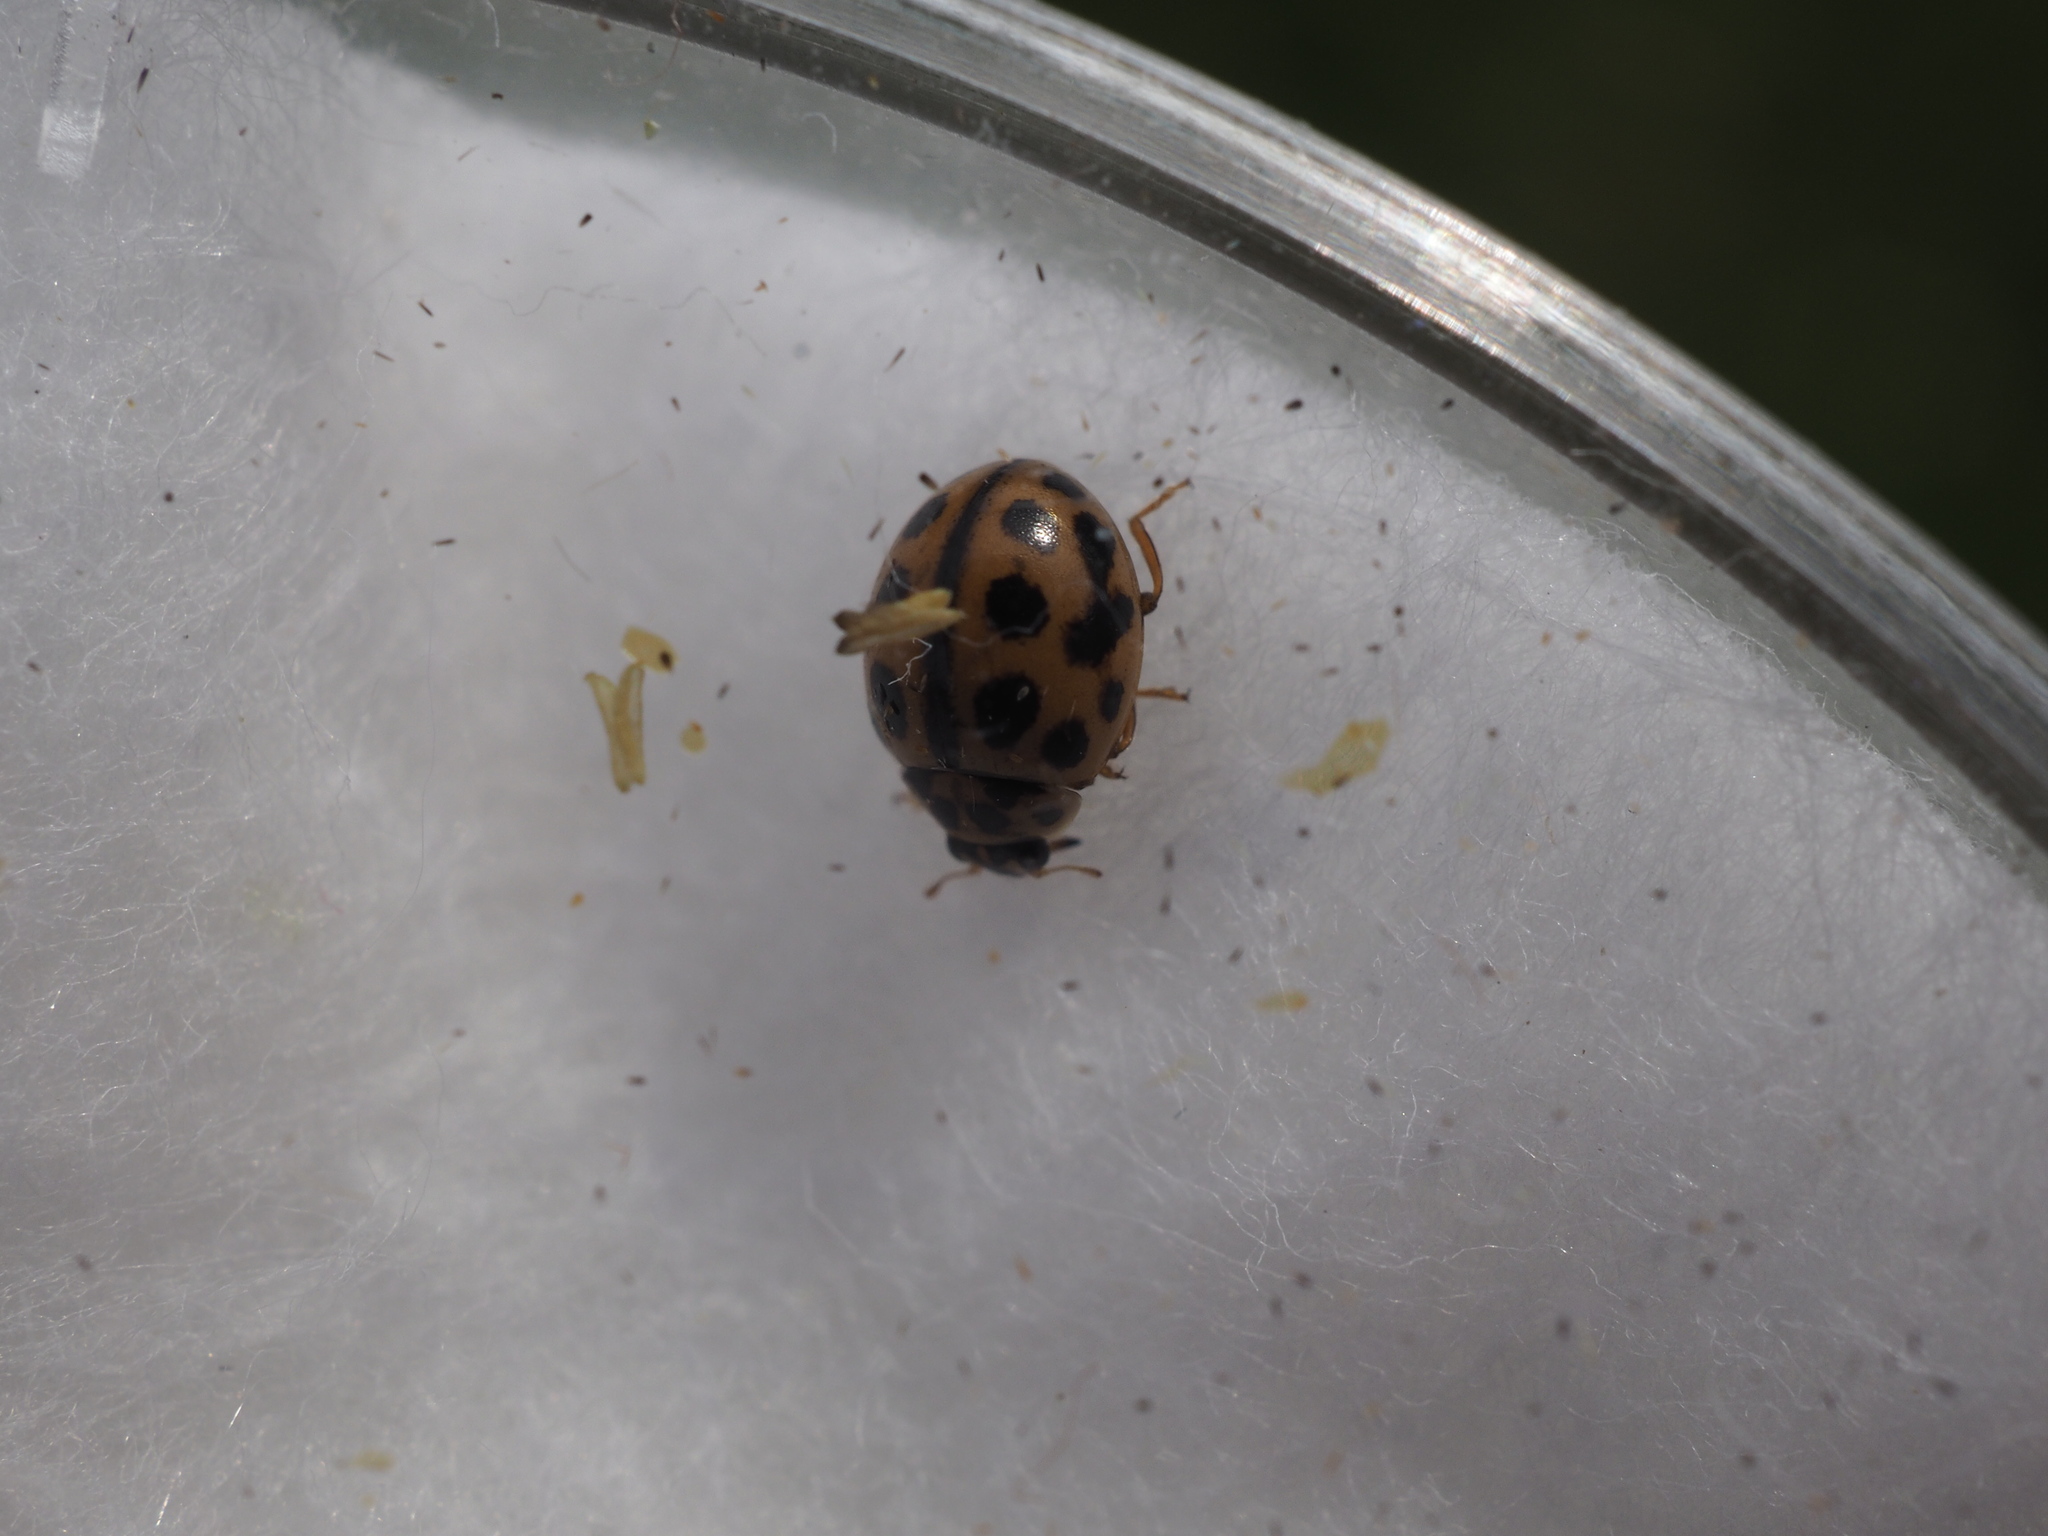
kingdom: Animalia
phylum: Arthropoda
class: Insecta
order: Coleoptera
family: Coccinellidae
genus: Tytthaspis
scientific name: Tytthaspis sedecimpunctata
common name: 16-spot ladybird
